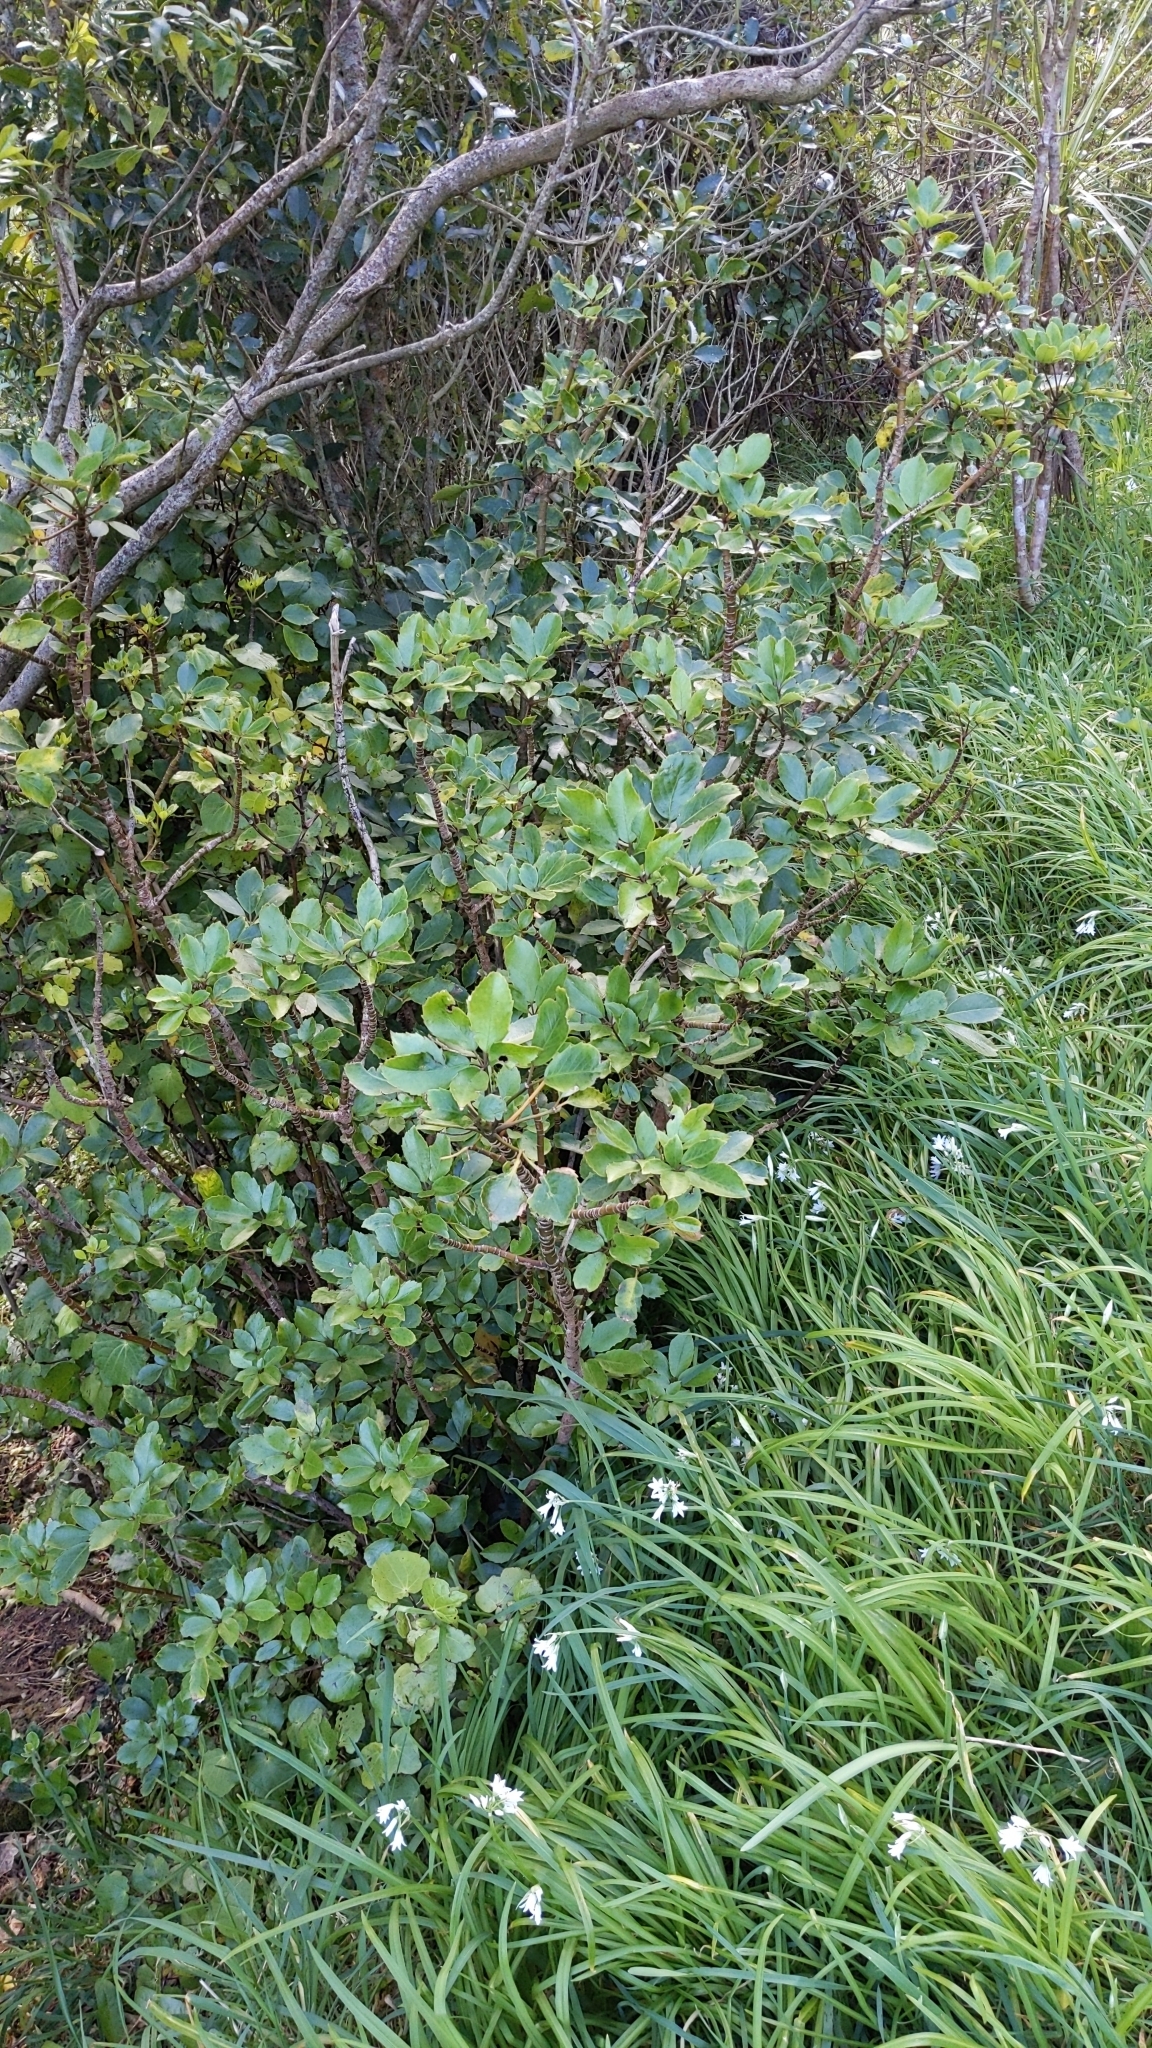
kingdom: Plantae
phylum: Tracheophyta
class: Magnoliopsida
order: Apiales
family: Araliaceae
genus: Neopanax
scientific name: Neopanax arboreus
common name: Five-fingers
